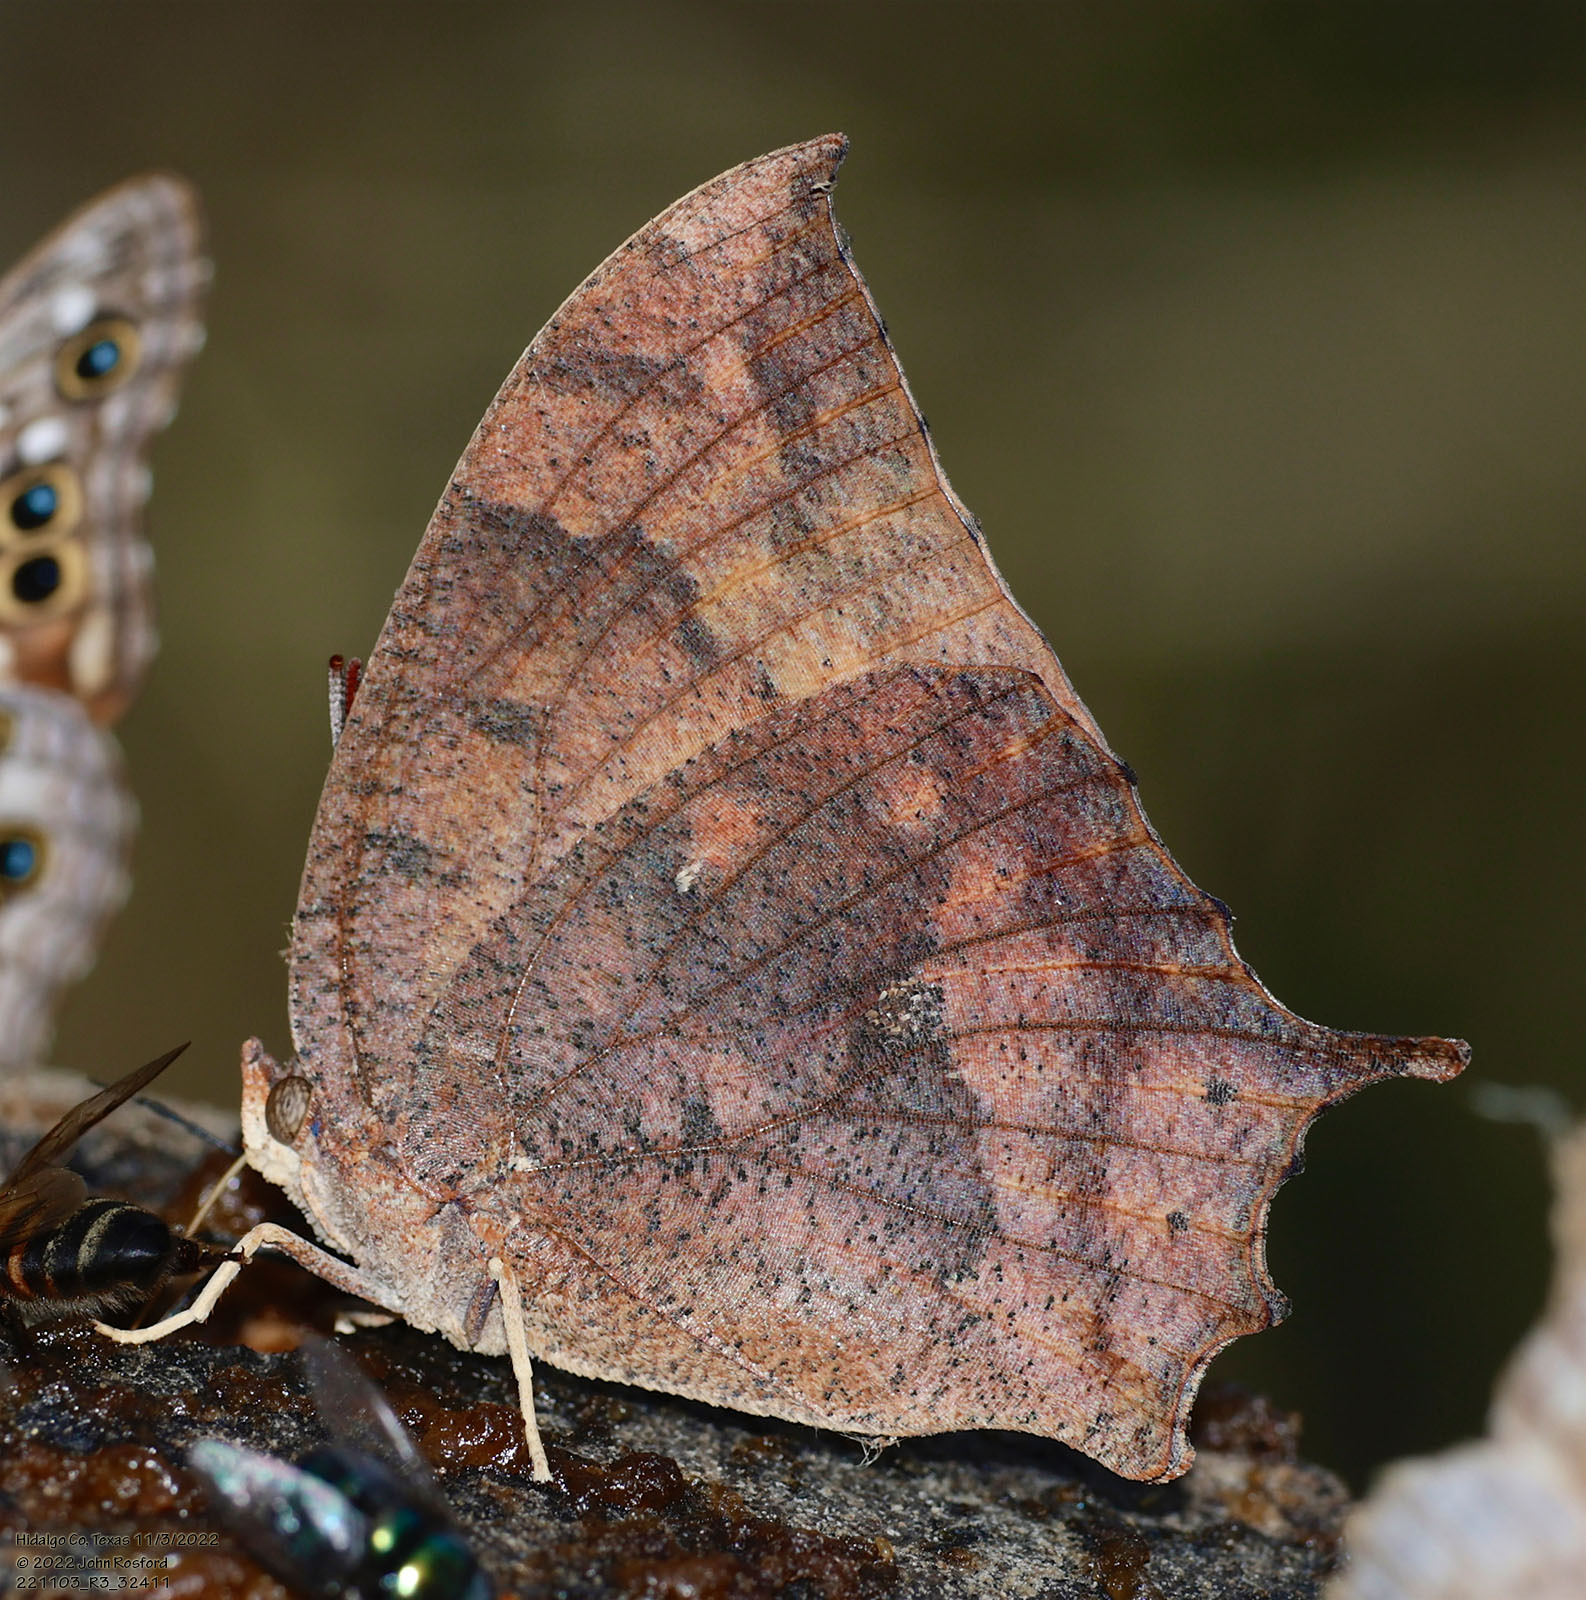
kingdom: Animalia
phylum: Arthropoda
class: Insecta
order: Lepidoptera
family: Nymphalidae
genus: Anaea
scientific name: Anaea aidea
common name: Tropical leafwing
